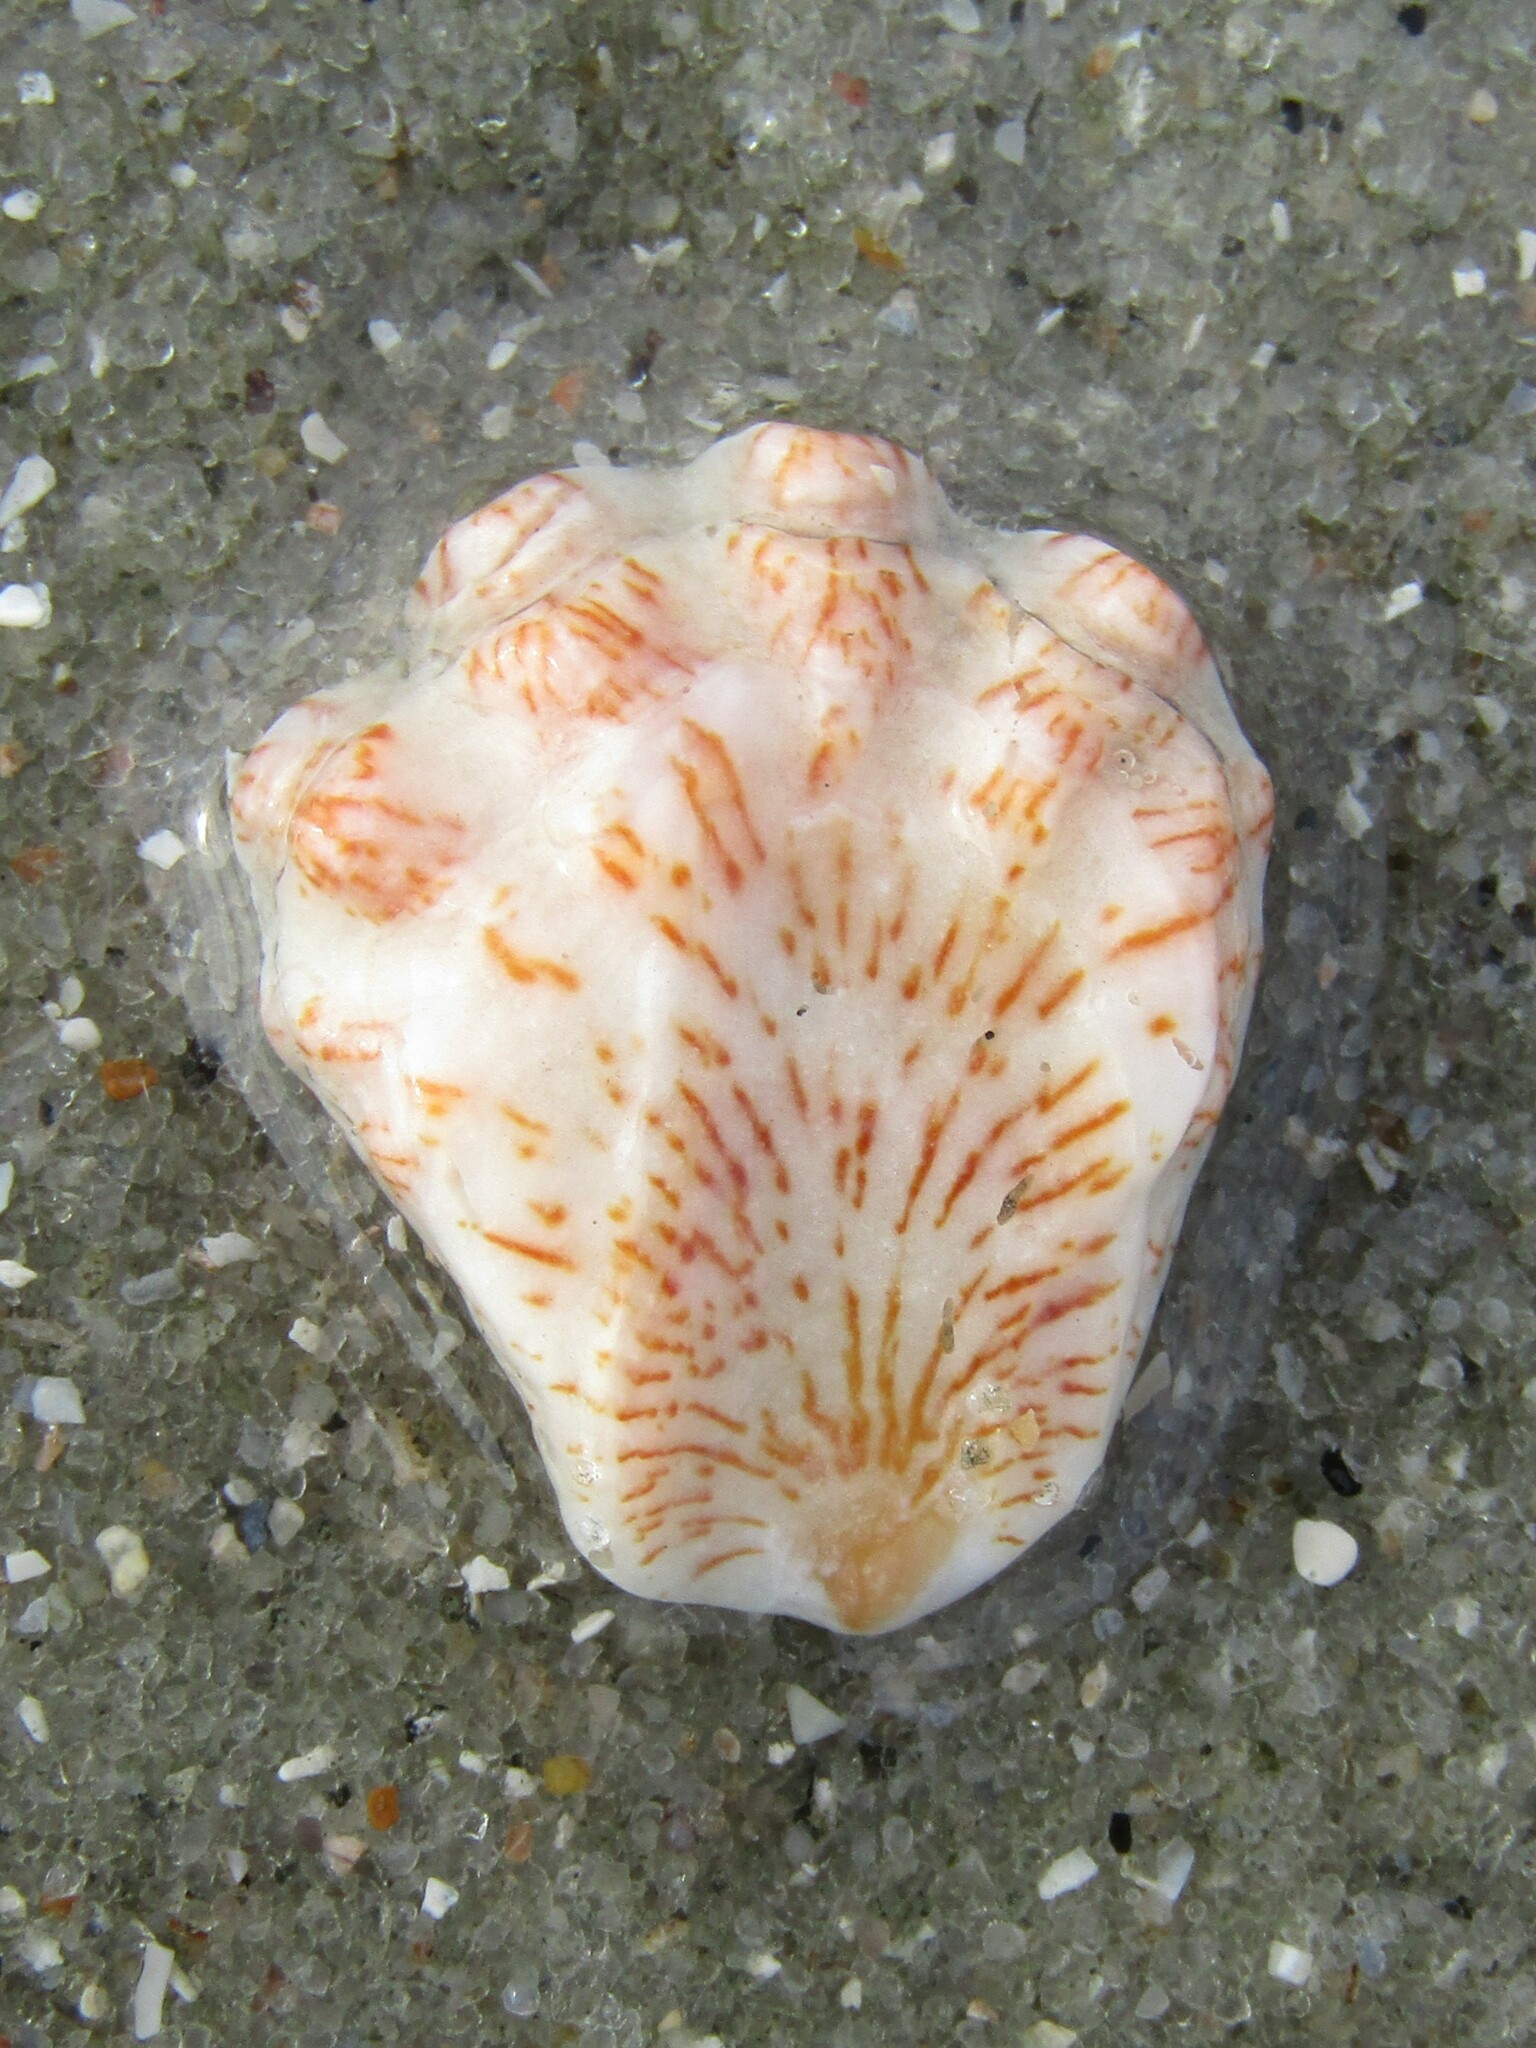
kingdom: Animalia
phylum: Mollusca
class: Bivalvia
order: Pectinida
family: Plicatulidae
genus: Plicatula
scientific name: Plicatula gibbosa
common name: Atlantic kitten's paw
